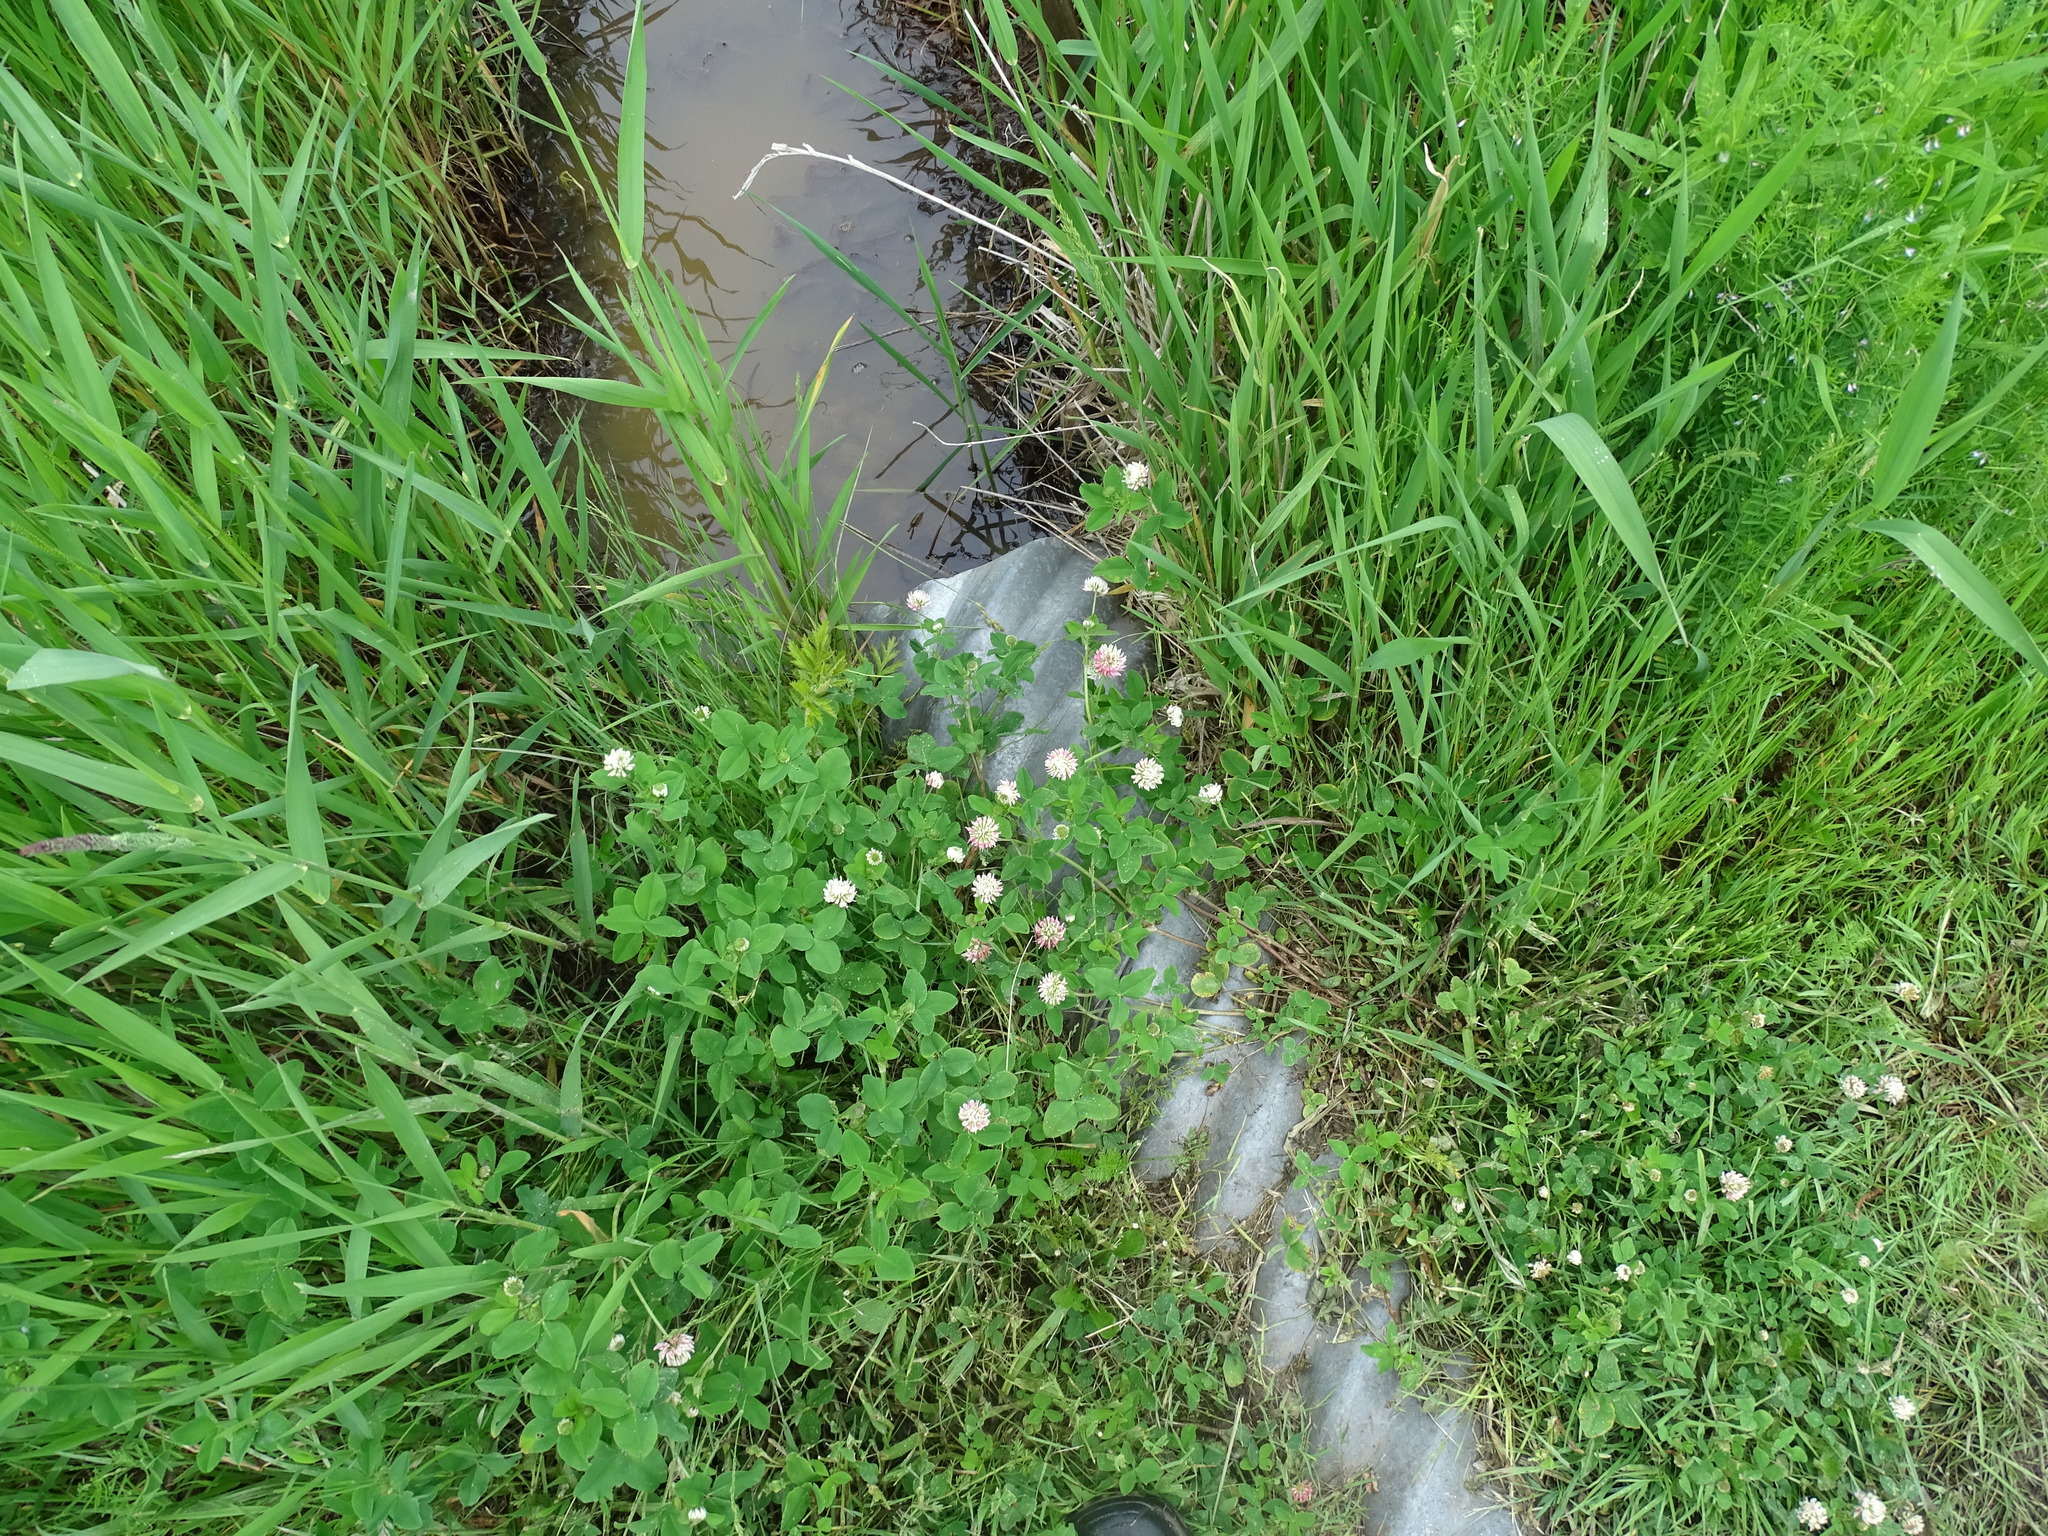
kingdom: Plantae
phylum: Tracheophyta
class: Magnoliopsida
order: Fabales
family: Fabaceae
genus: Trifolium
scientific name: Trifolium repens
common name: White clover
